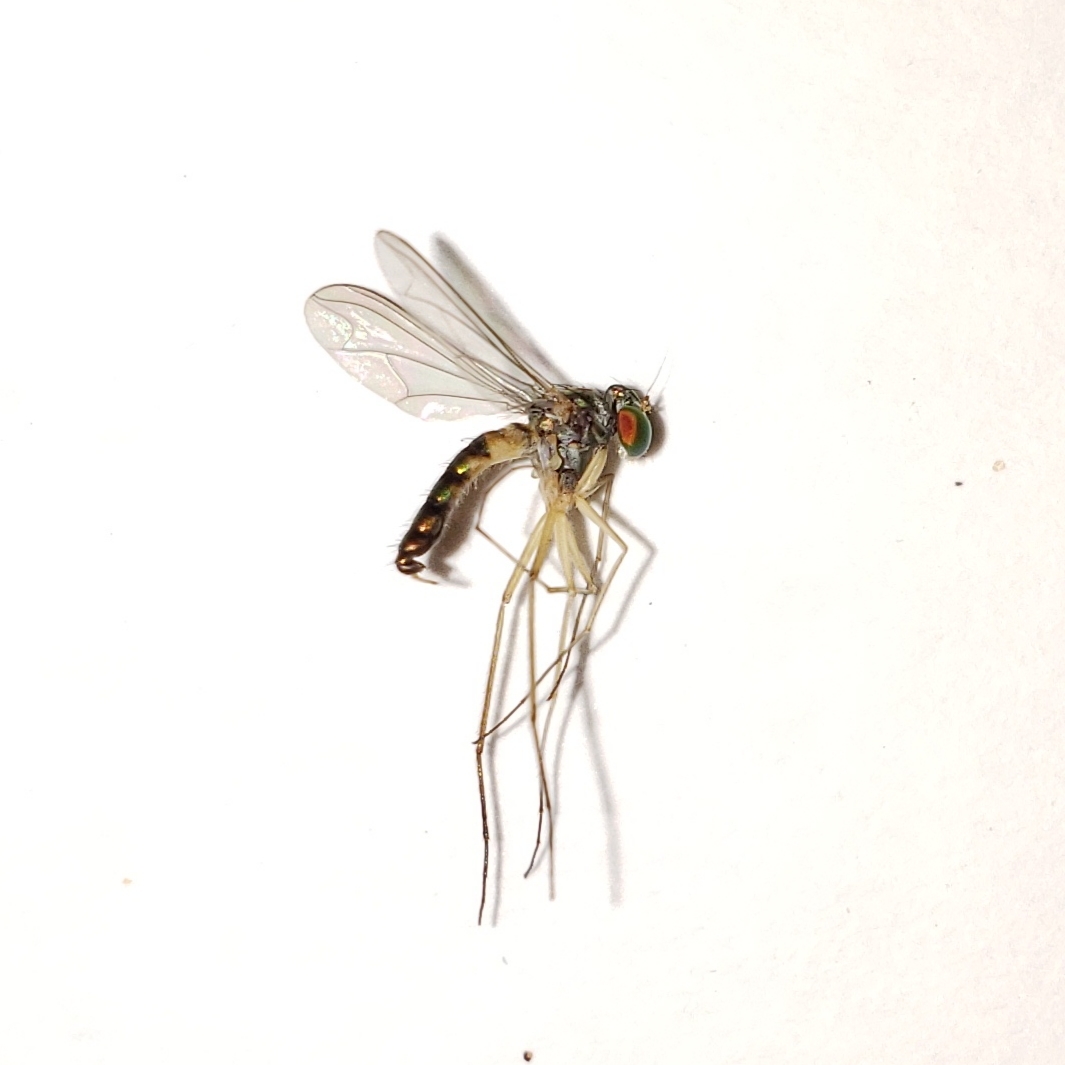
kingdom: Animalia
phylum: Arthropoda
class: Insecta
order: Diptera
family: Dolichopodidae
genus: Amblypsilopus
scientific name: Amblypsilopus variegatus
